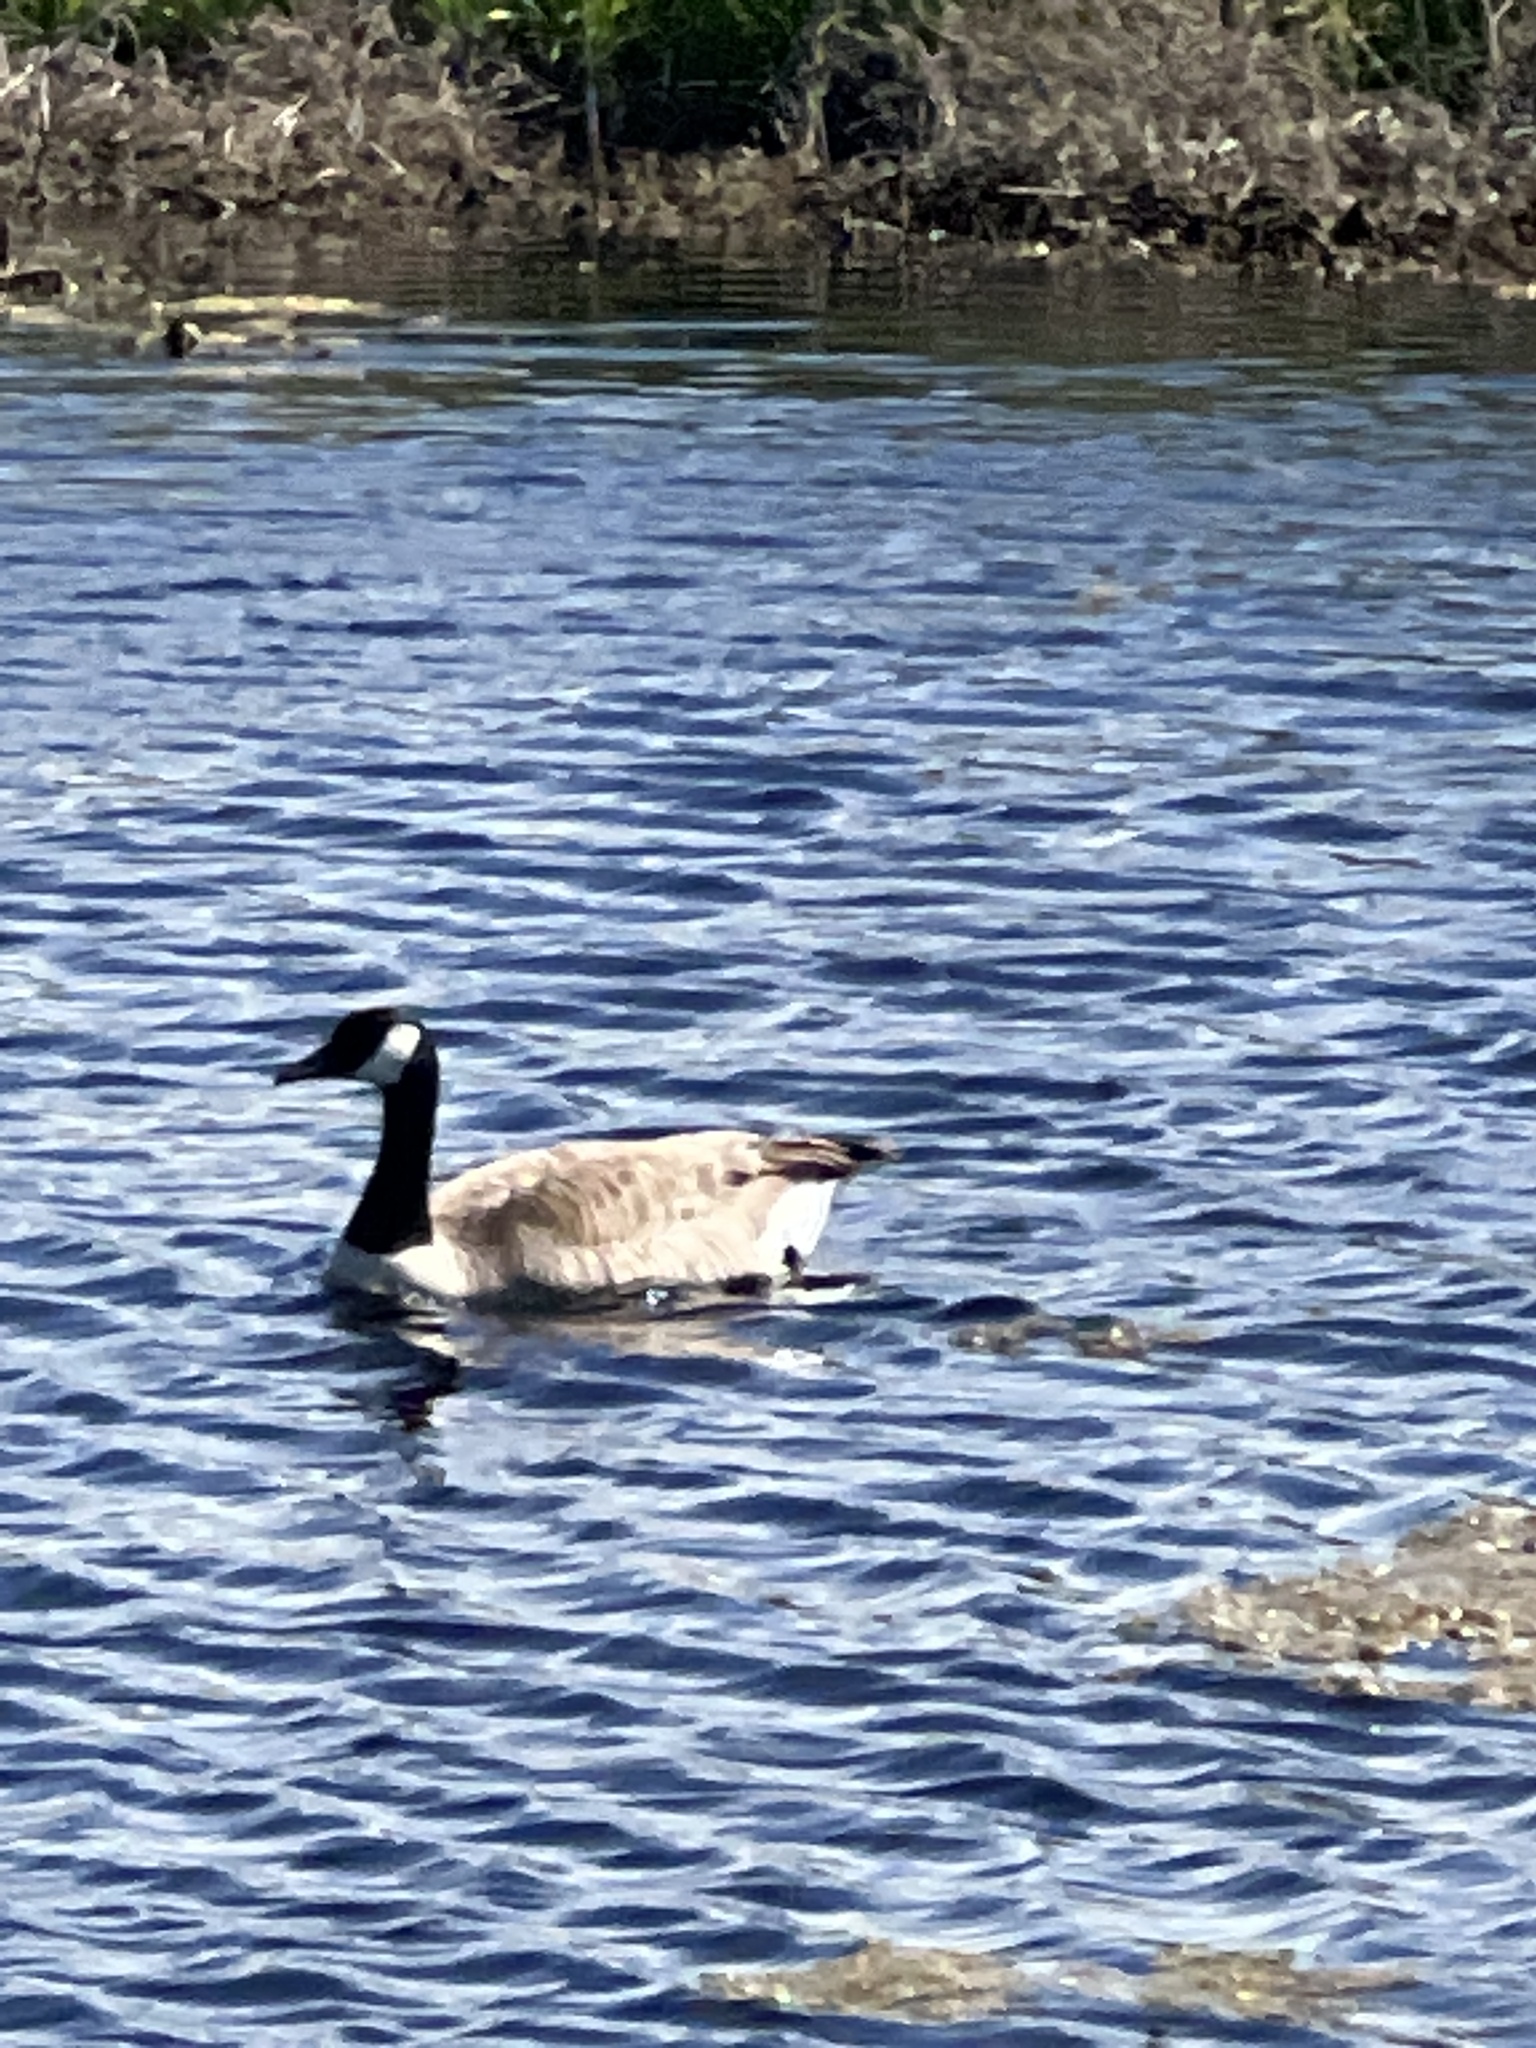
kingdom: Animalia
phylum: Chordata
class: Aves
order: Anseriformes
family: Anatidae
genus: Branta
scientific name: Branta canadensis
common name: Canada goose
